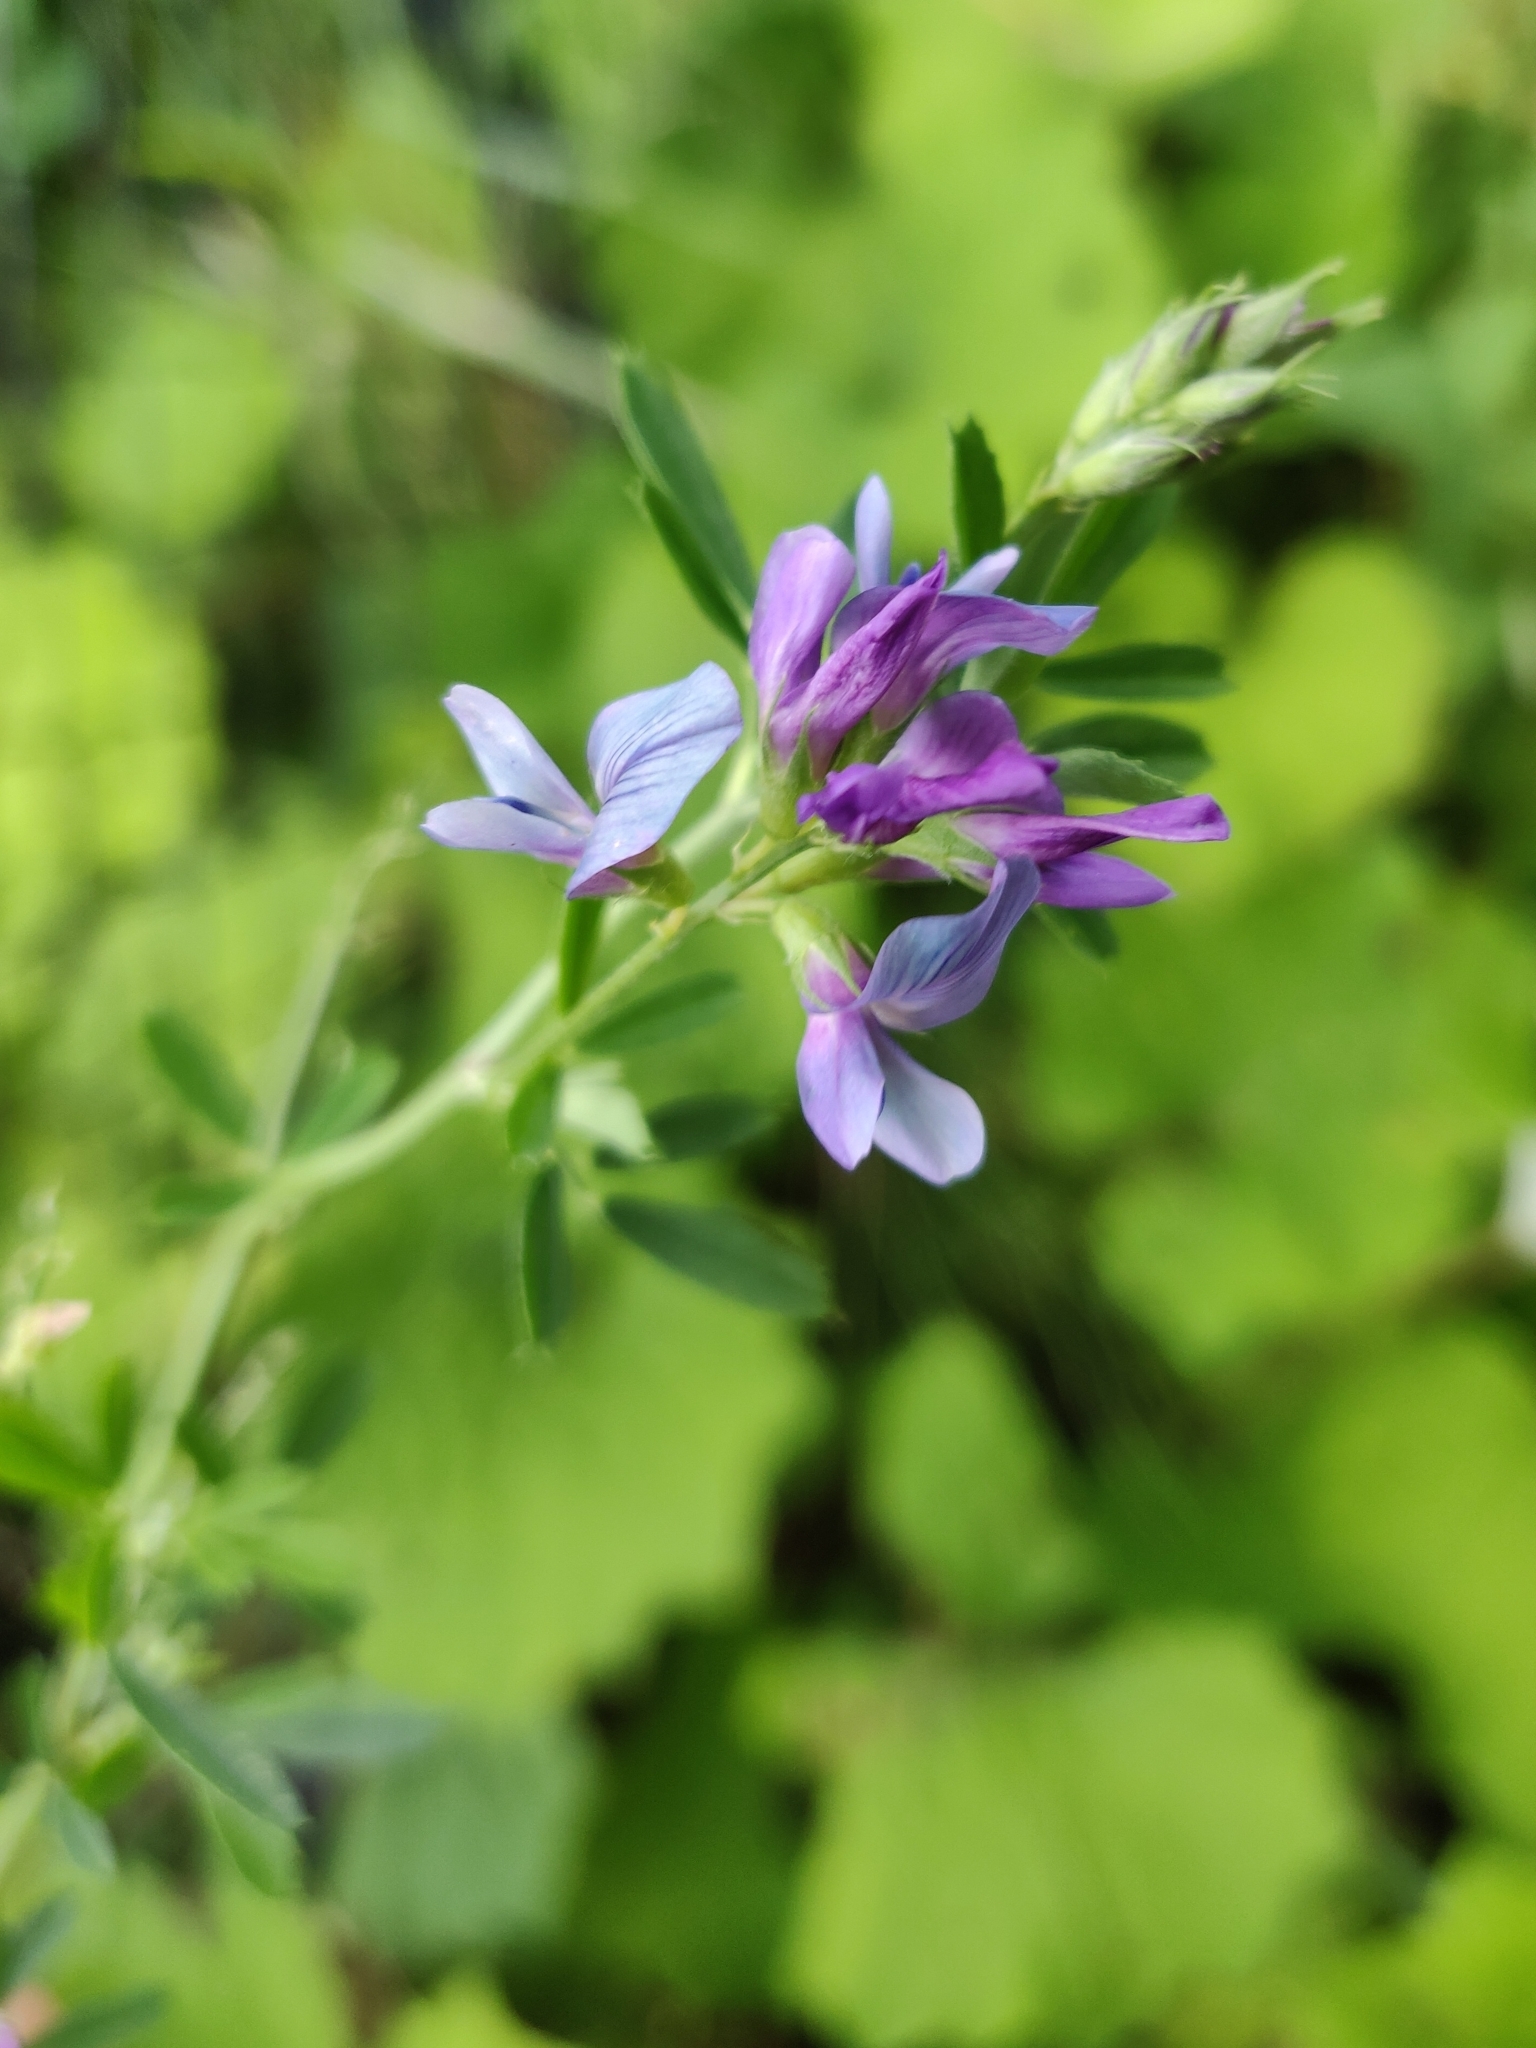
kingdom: Plantae
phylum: Tracheophyta
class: Magnoliopsida
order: Fabales
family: Fabaceae
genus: Medicago
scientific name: Medicago sativa
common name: Alfalfa
